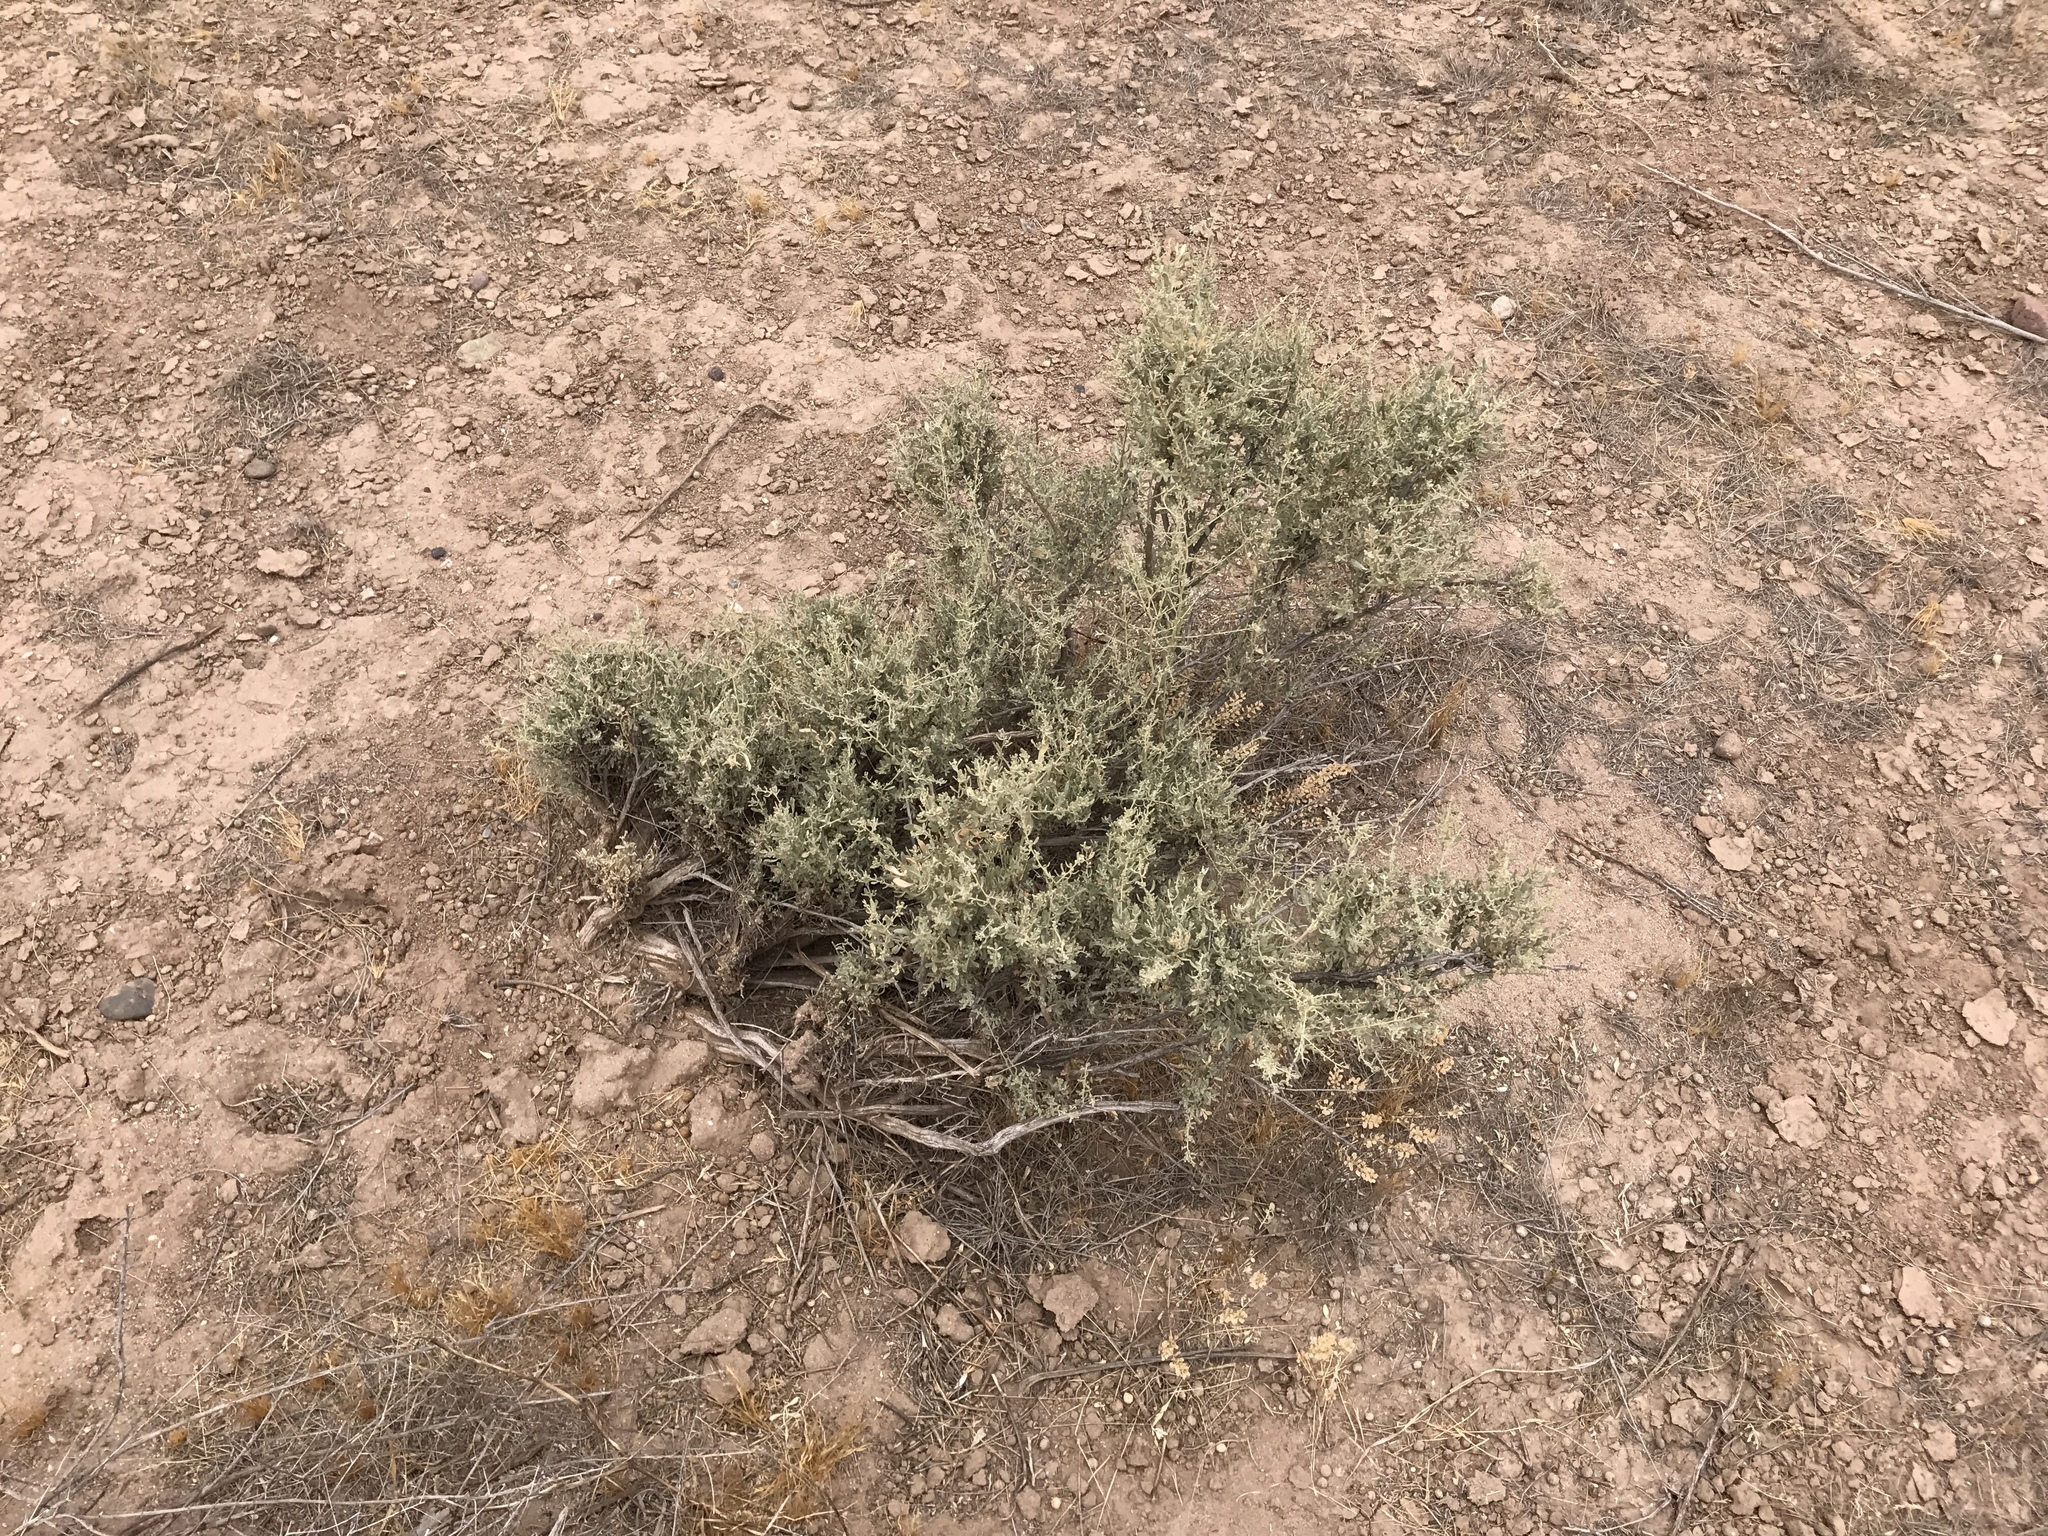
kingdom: Plantae
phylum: Tracheophyta
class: Magnoliopsida
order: Caryophyllales
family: Amaranthaceae
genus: Atriplex
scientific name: Atriplex polycarpa
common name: Desert saltbush
